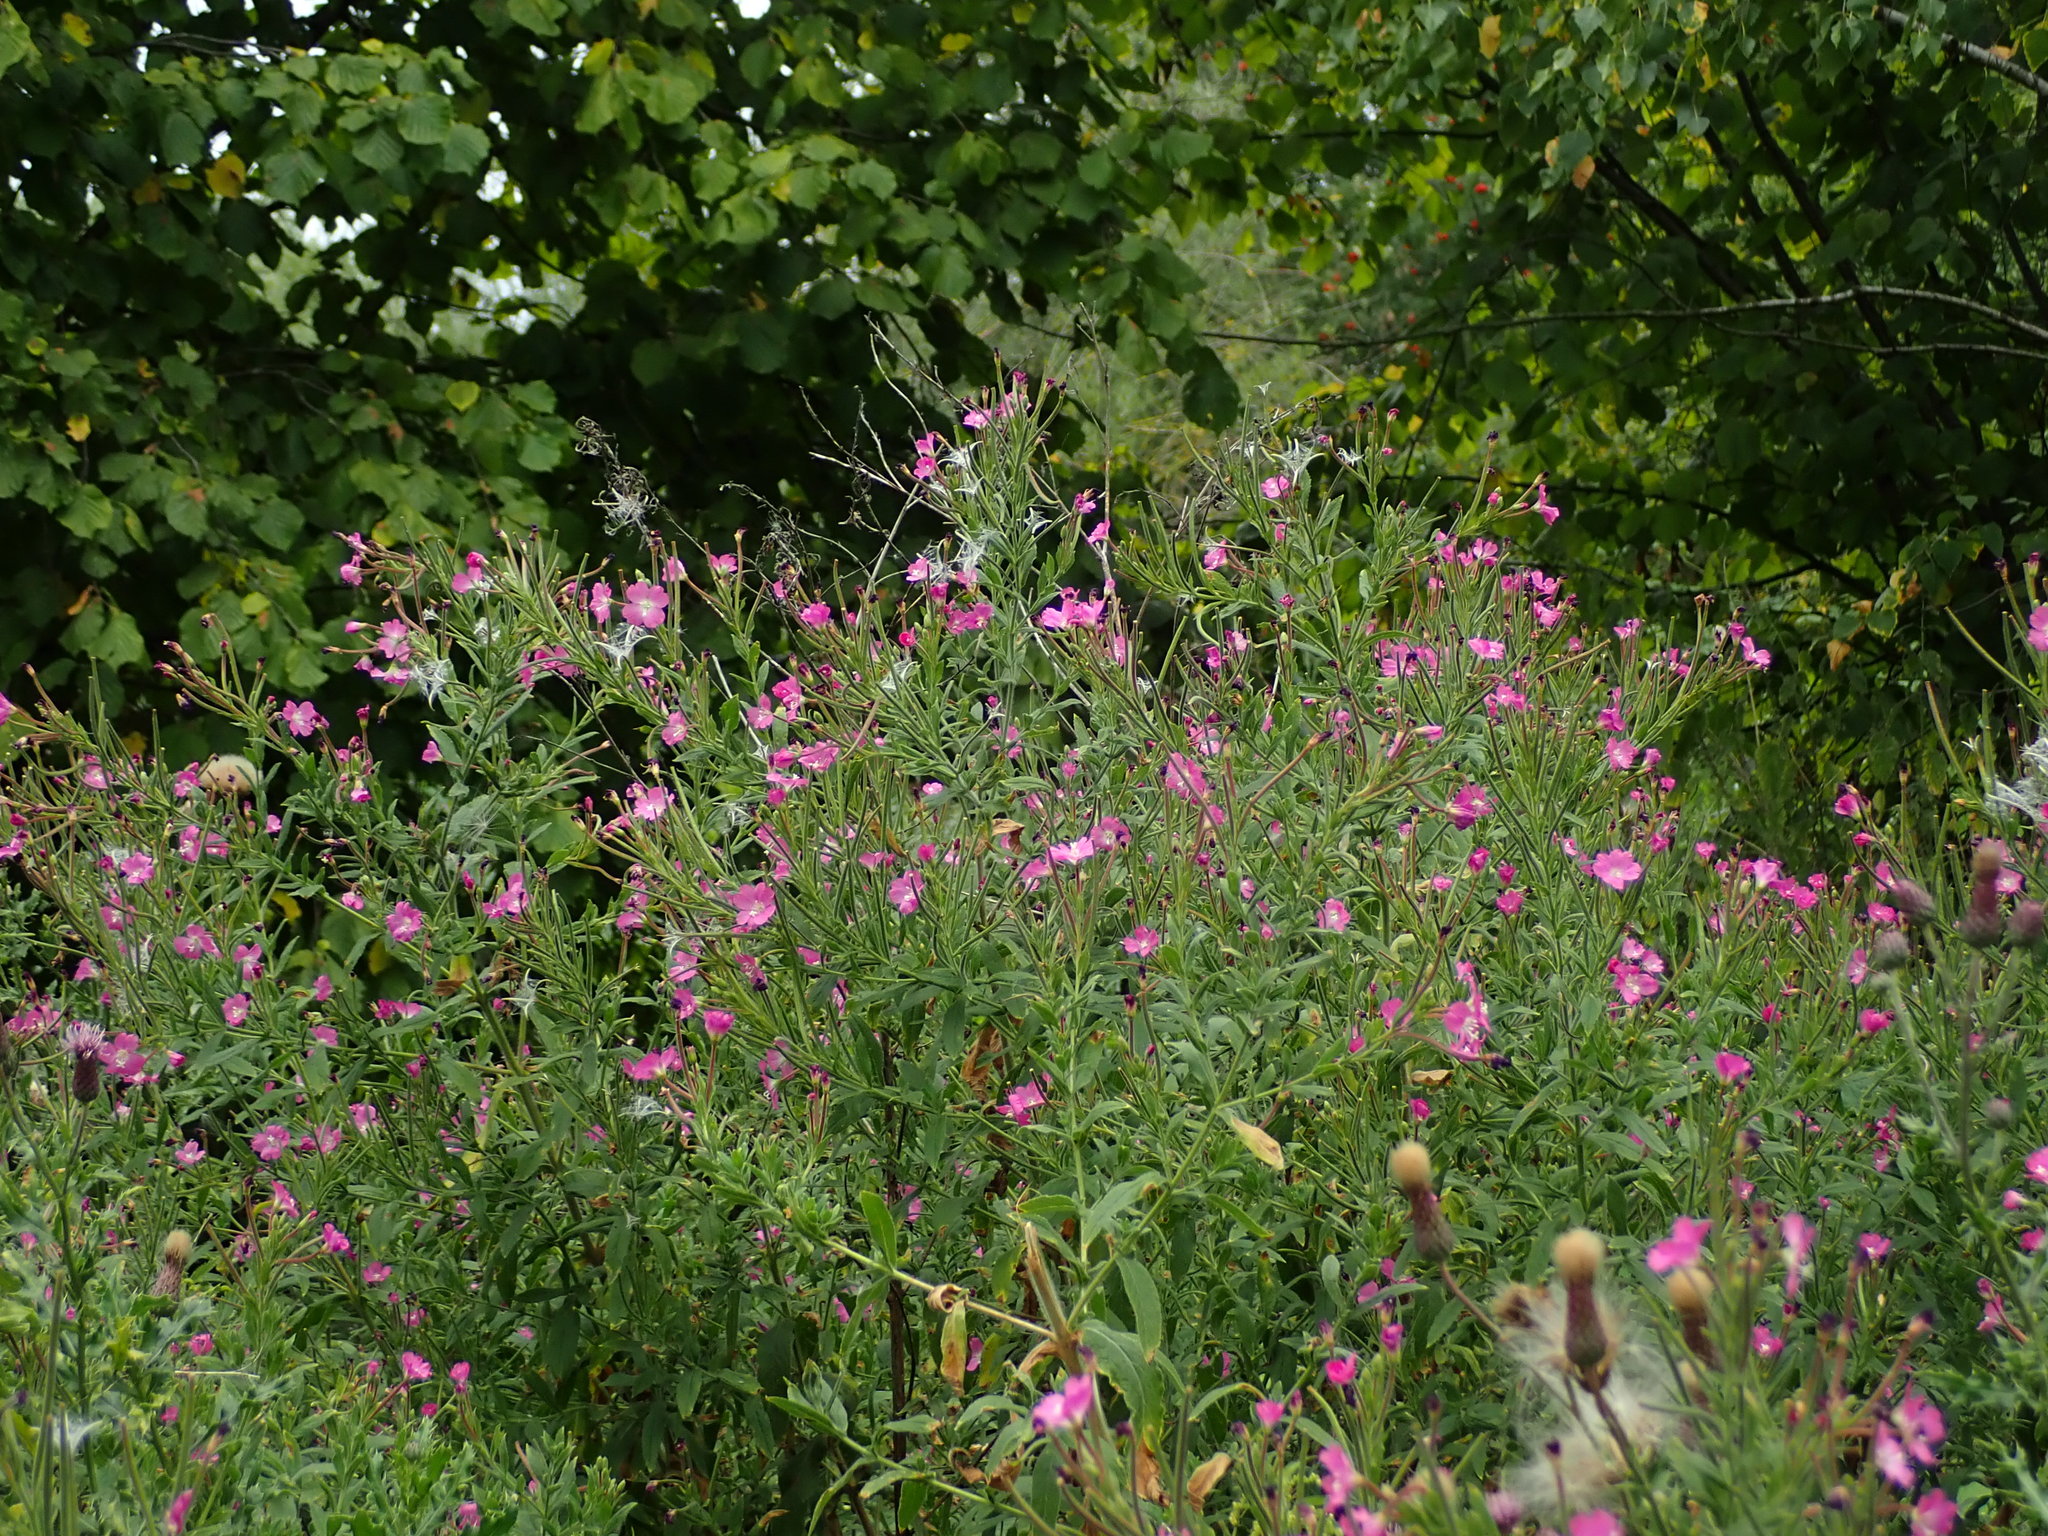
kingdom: Plantae
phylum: Tracheophyta
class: Magnoliopsida
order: Myrtales
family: Onagraceae
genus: Epilobium
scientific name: Epilobium hirsutum
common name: Great willowherb
